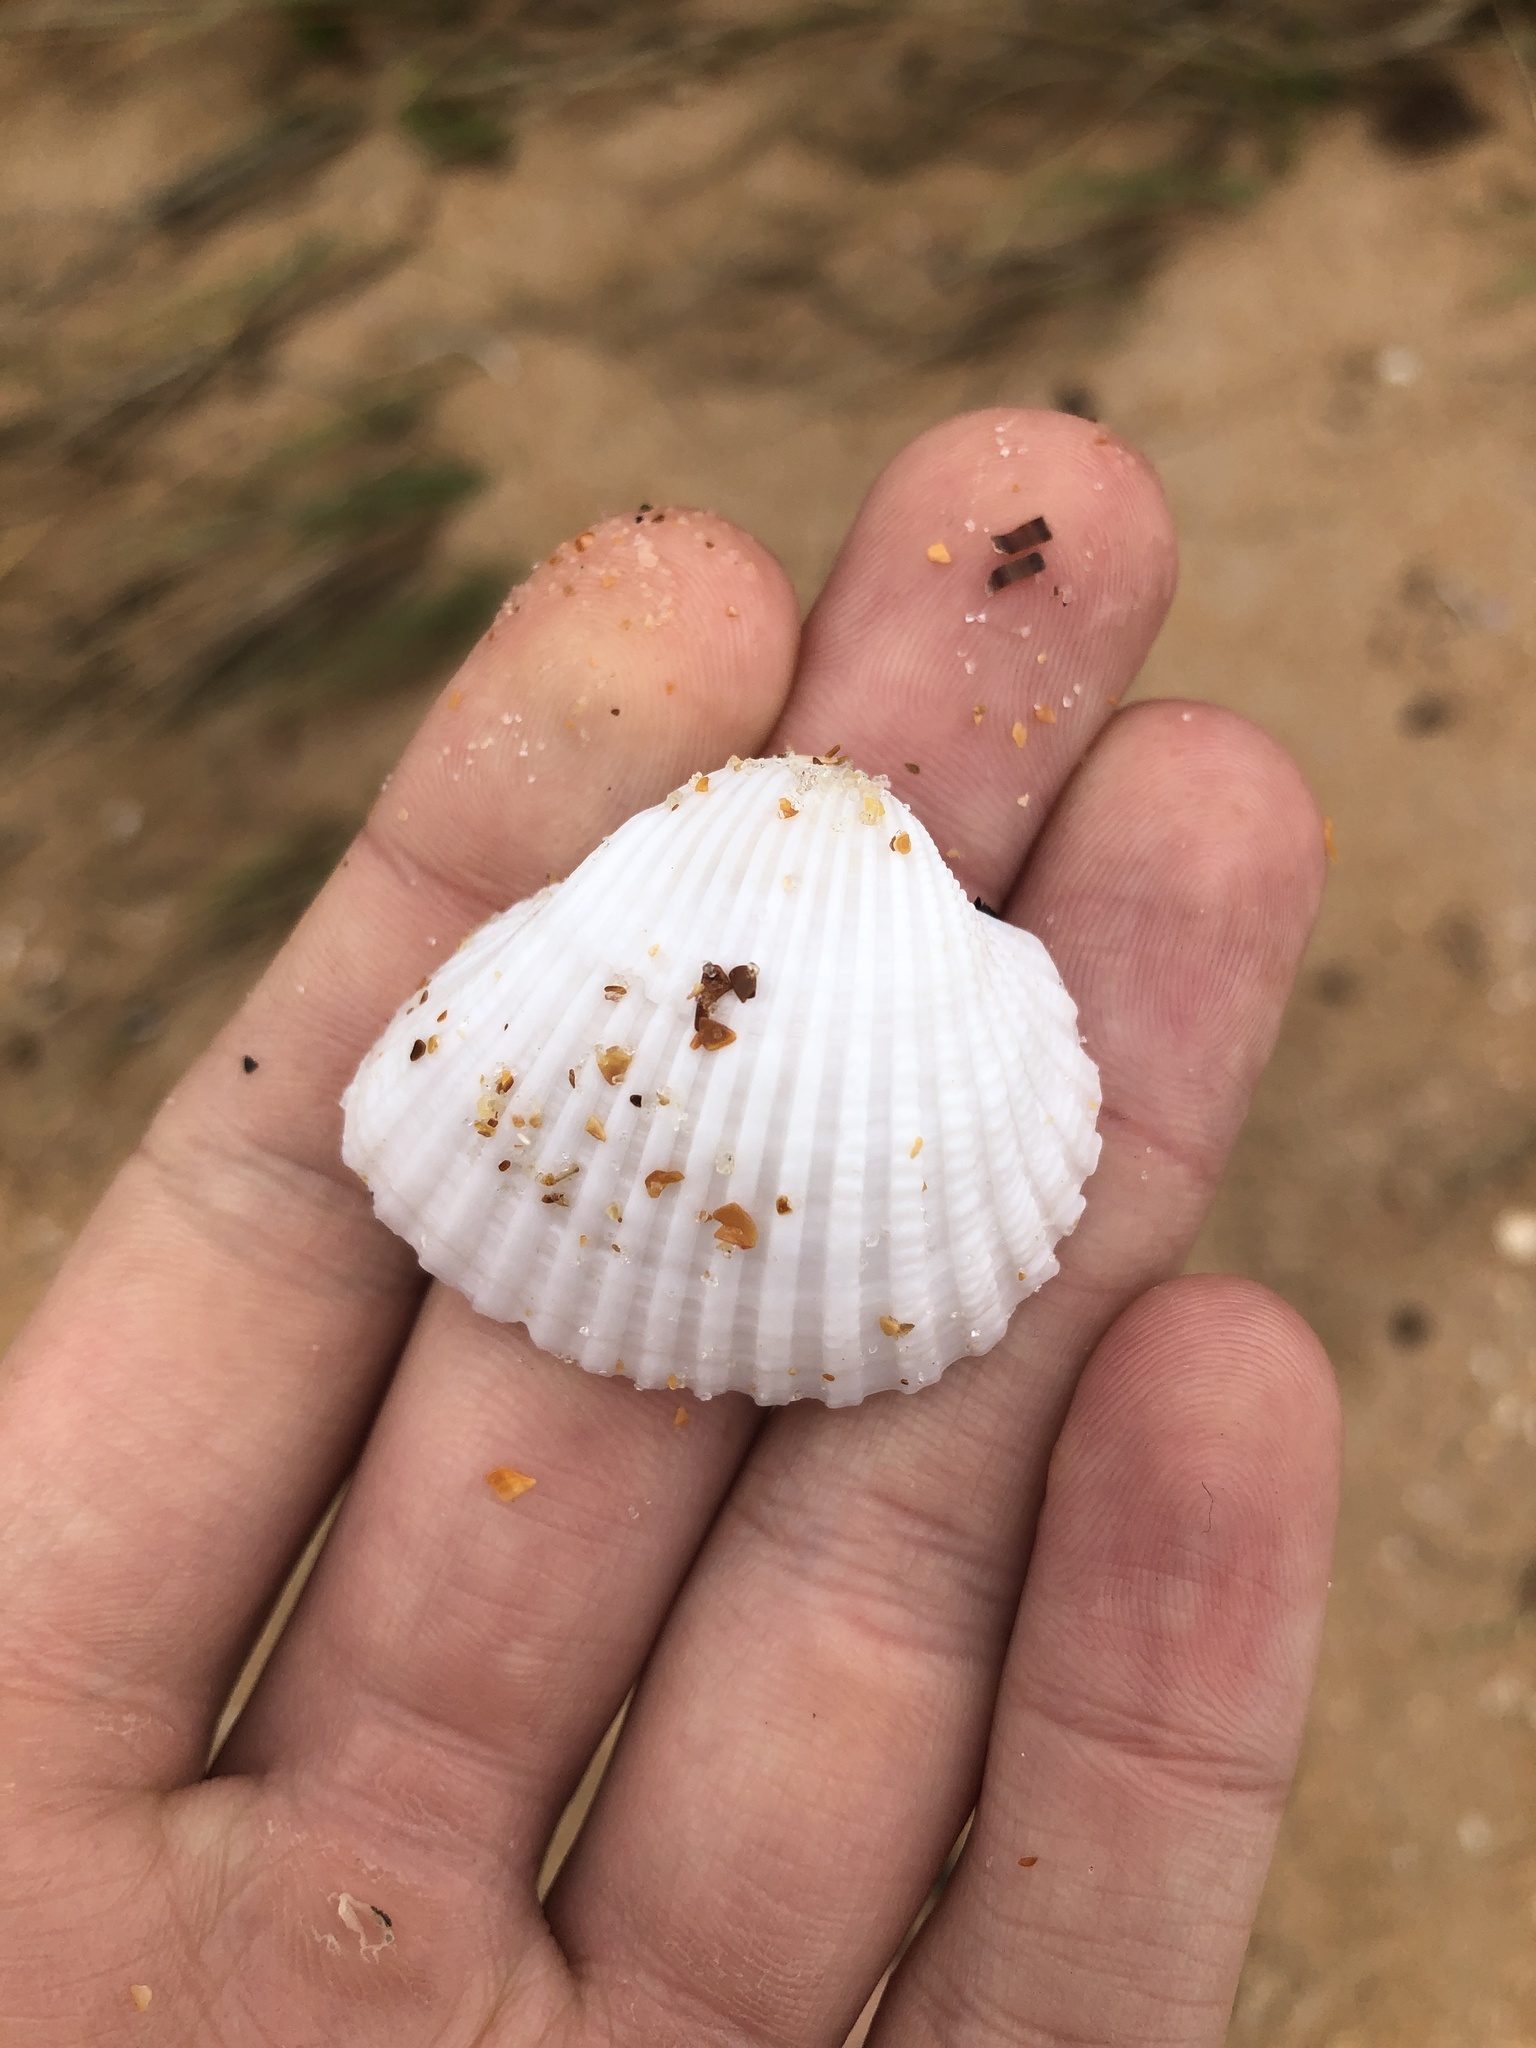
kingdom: Animalia
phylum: Mollusca
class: Bivalvia
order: Arcida
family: Arcidae
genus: Anadara
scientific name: Anadara brasiliana
